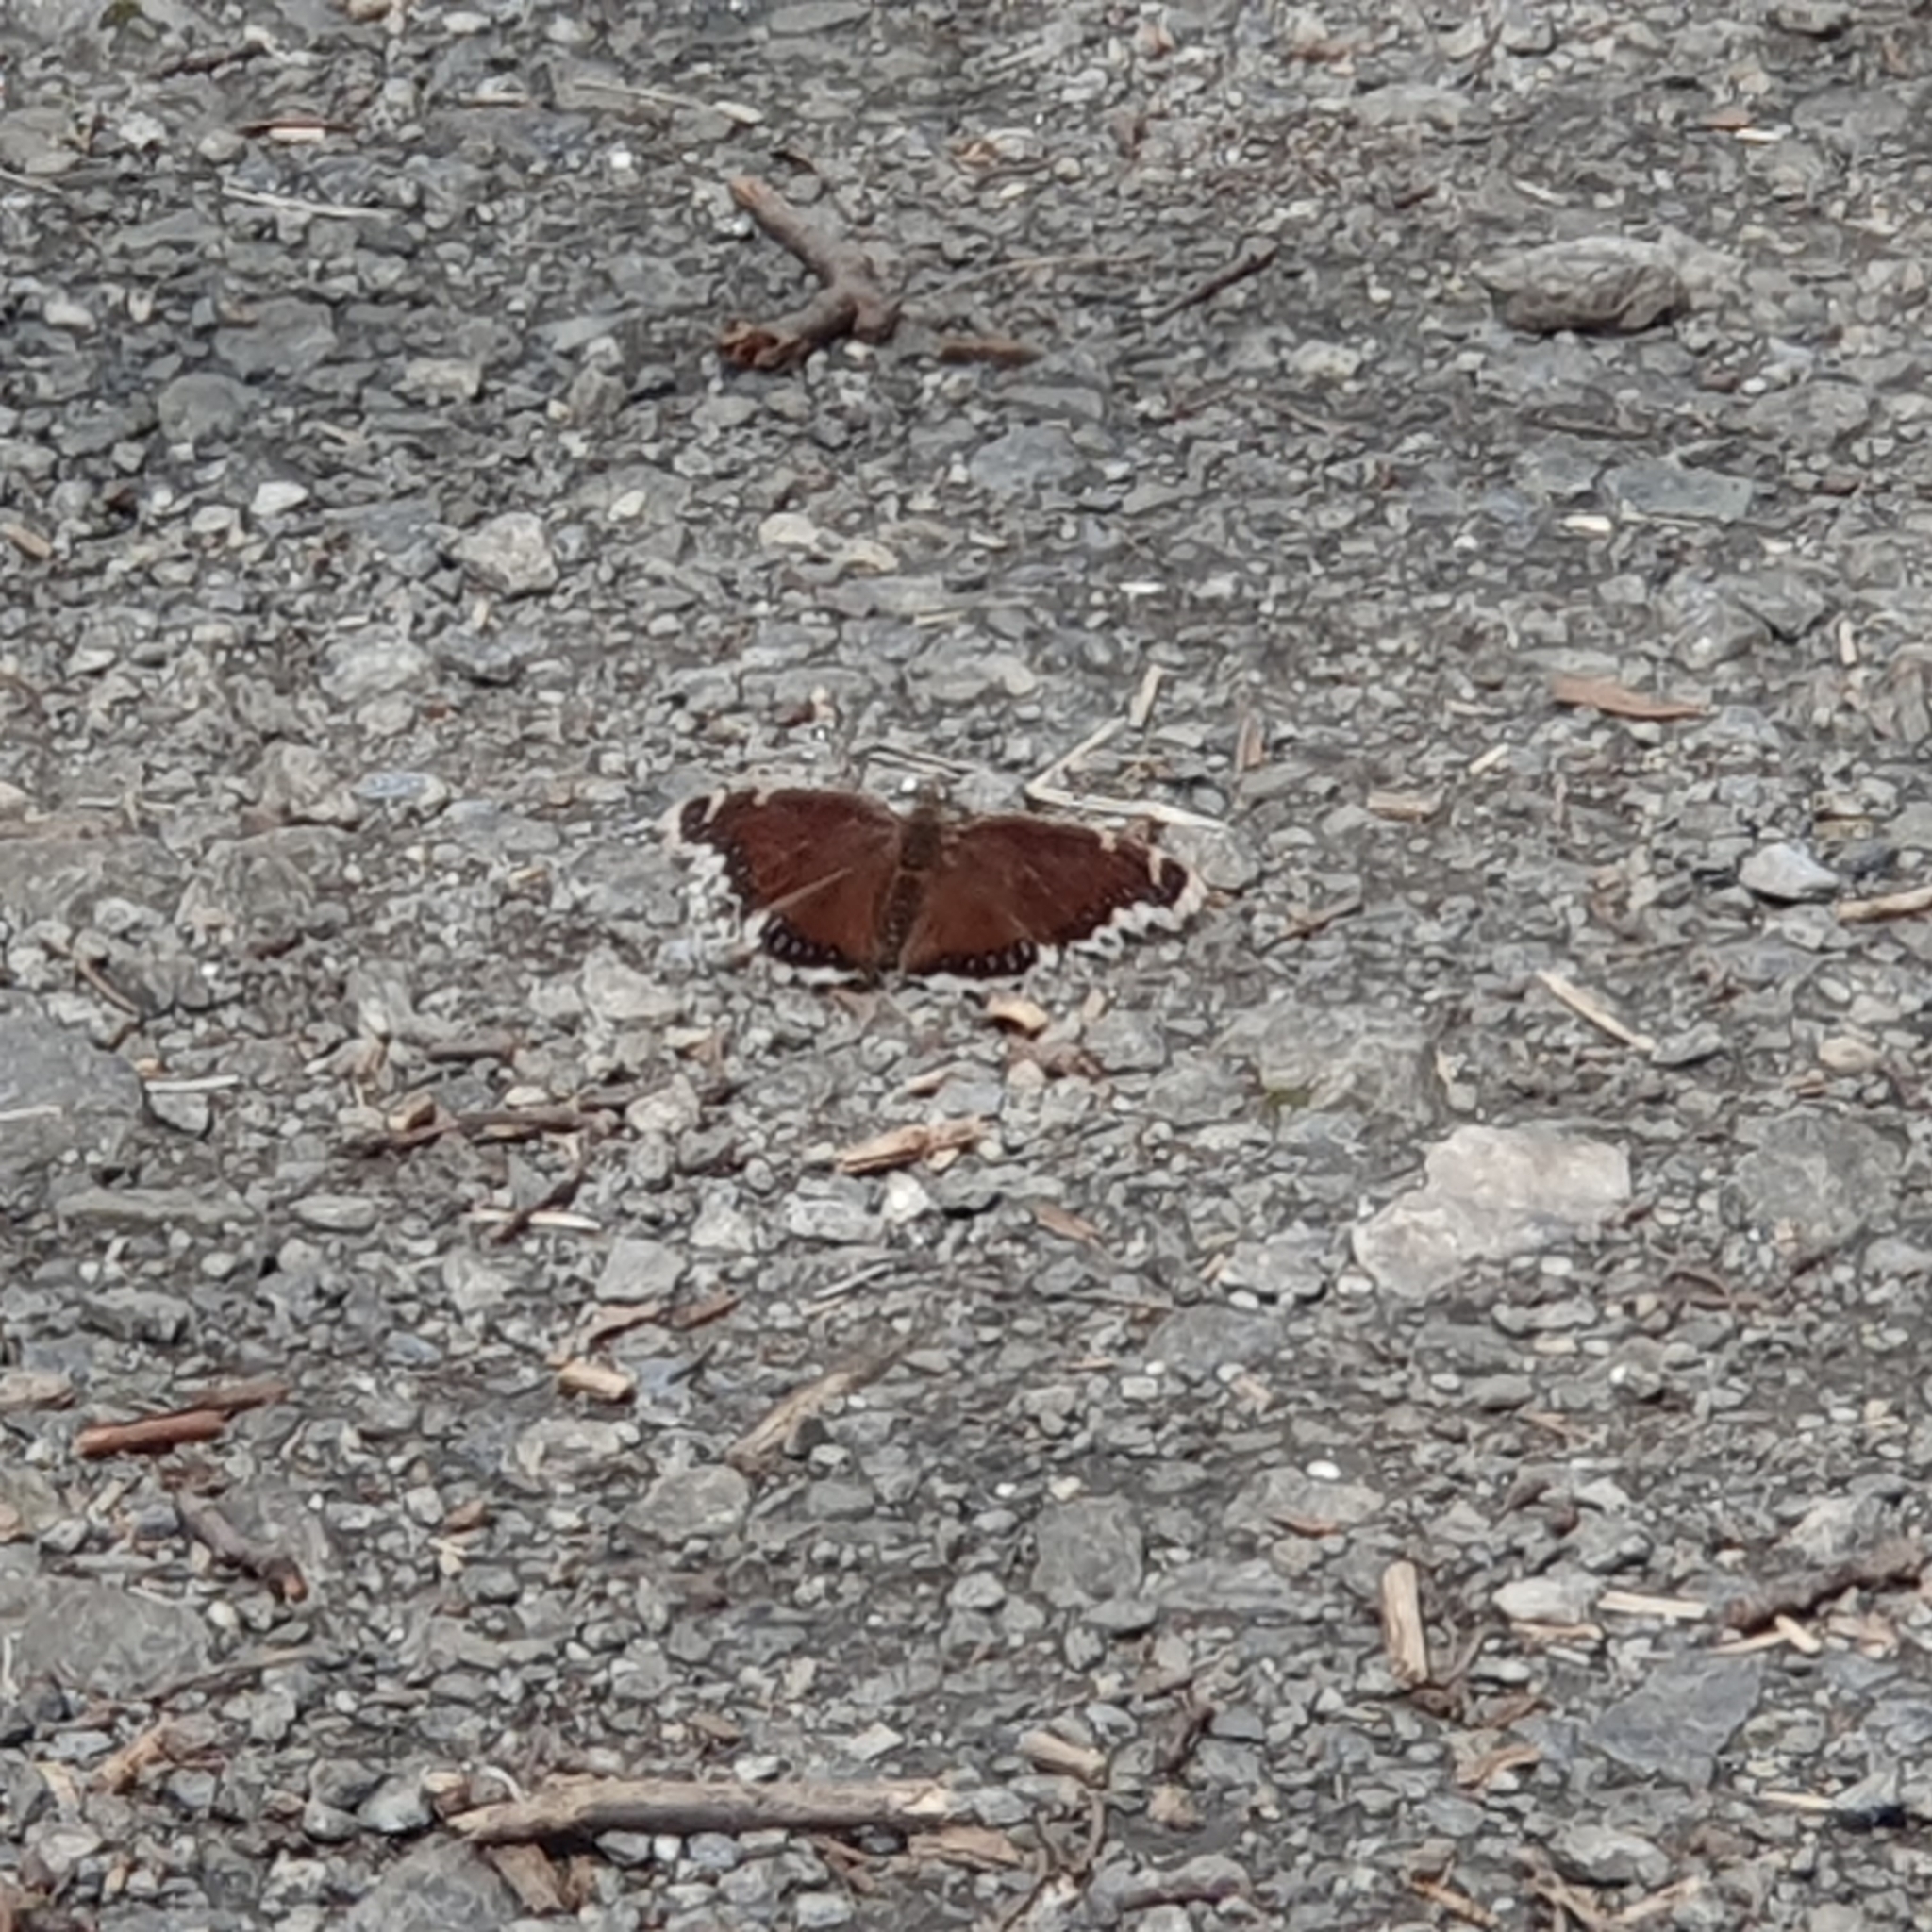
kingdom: Animalia
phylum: Arthropoda
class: Insecta
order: Lepidoptera
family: Nymphalidae
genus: Nymphalis
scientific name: Nymphalis antiopa
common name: Camberwell beauty
